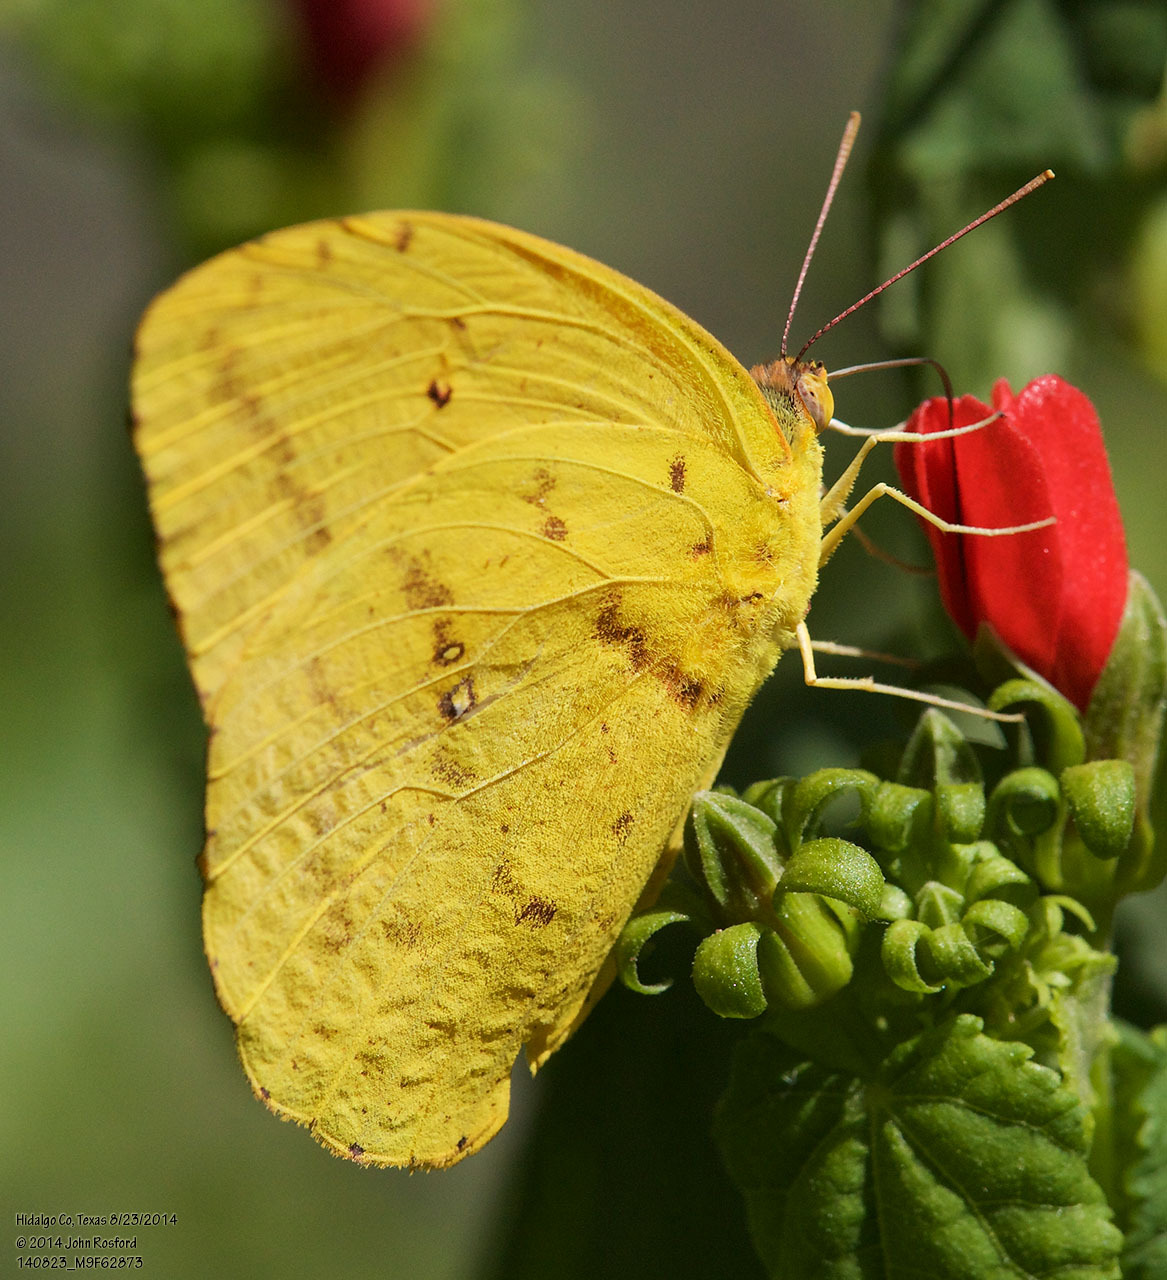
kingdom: Animalia
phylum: Arthropoda
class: Insecta
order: Lepidoptera
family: Pieridae
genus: Phoebis
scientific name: Phoebis agarithe
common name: Large orange sulphur
